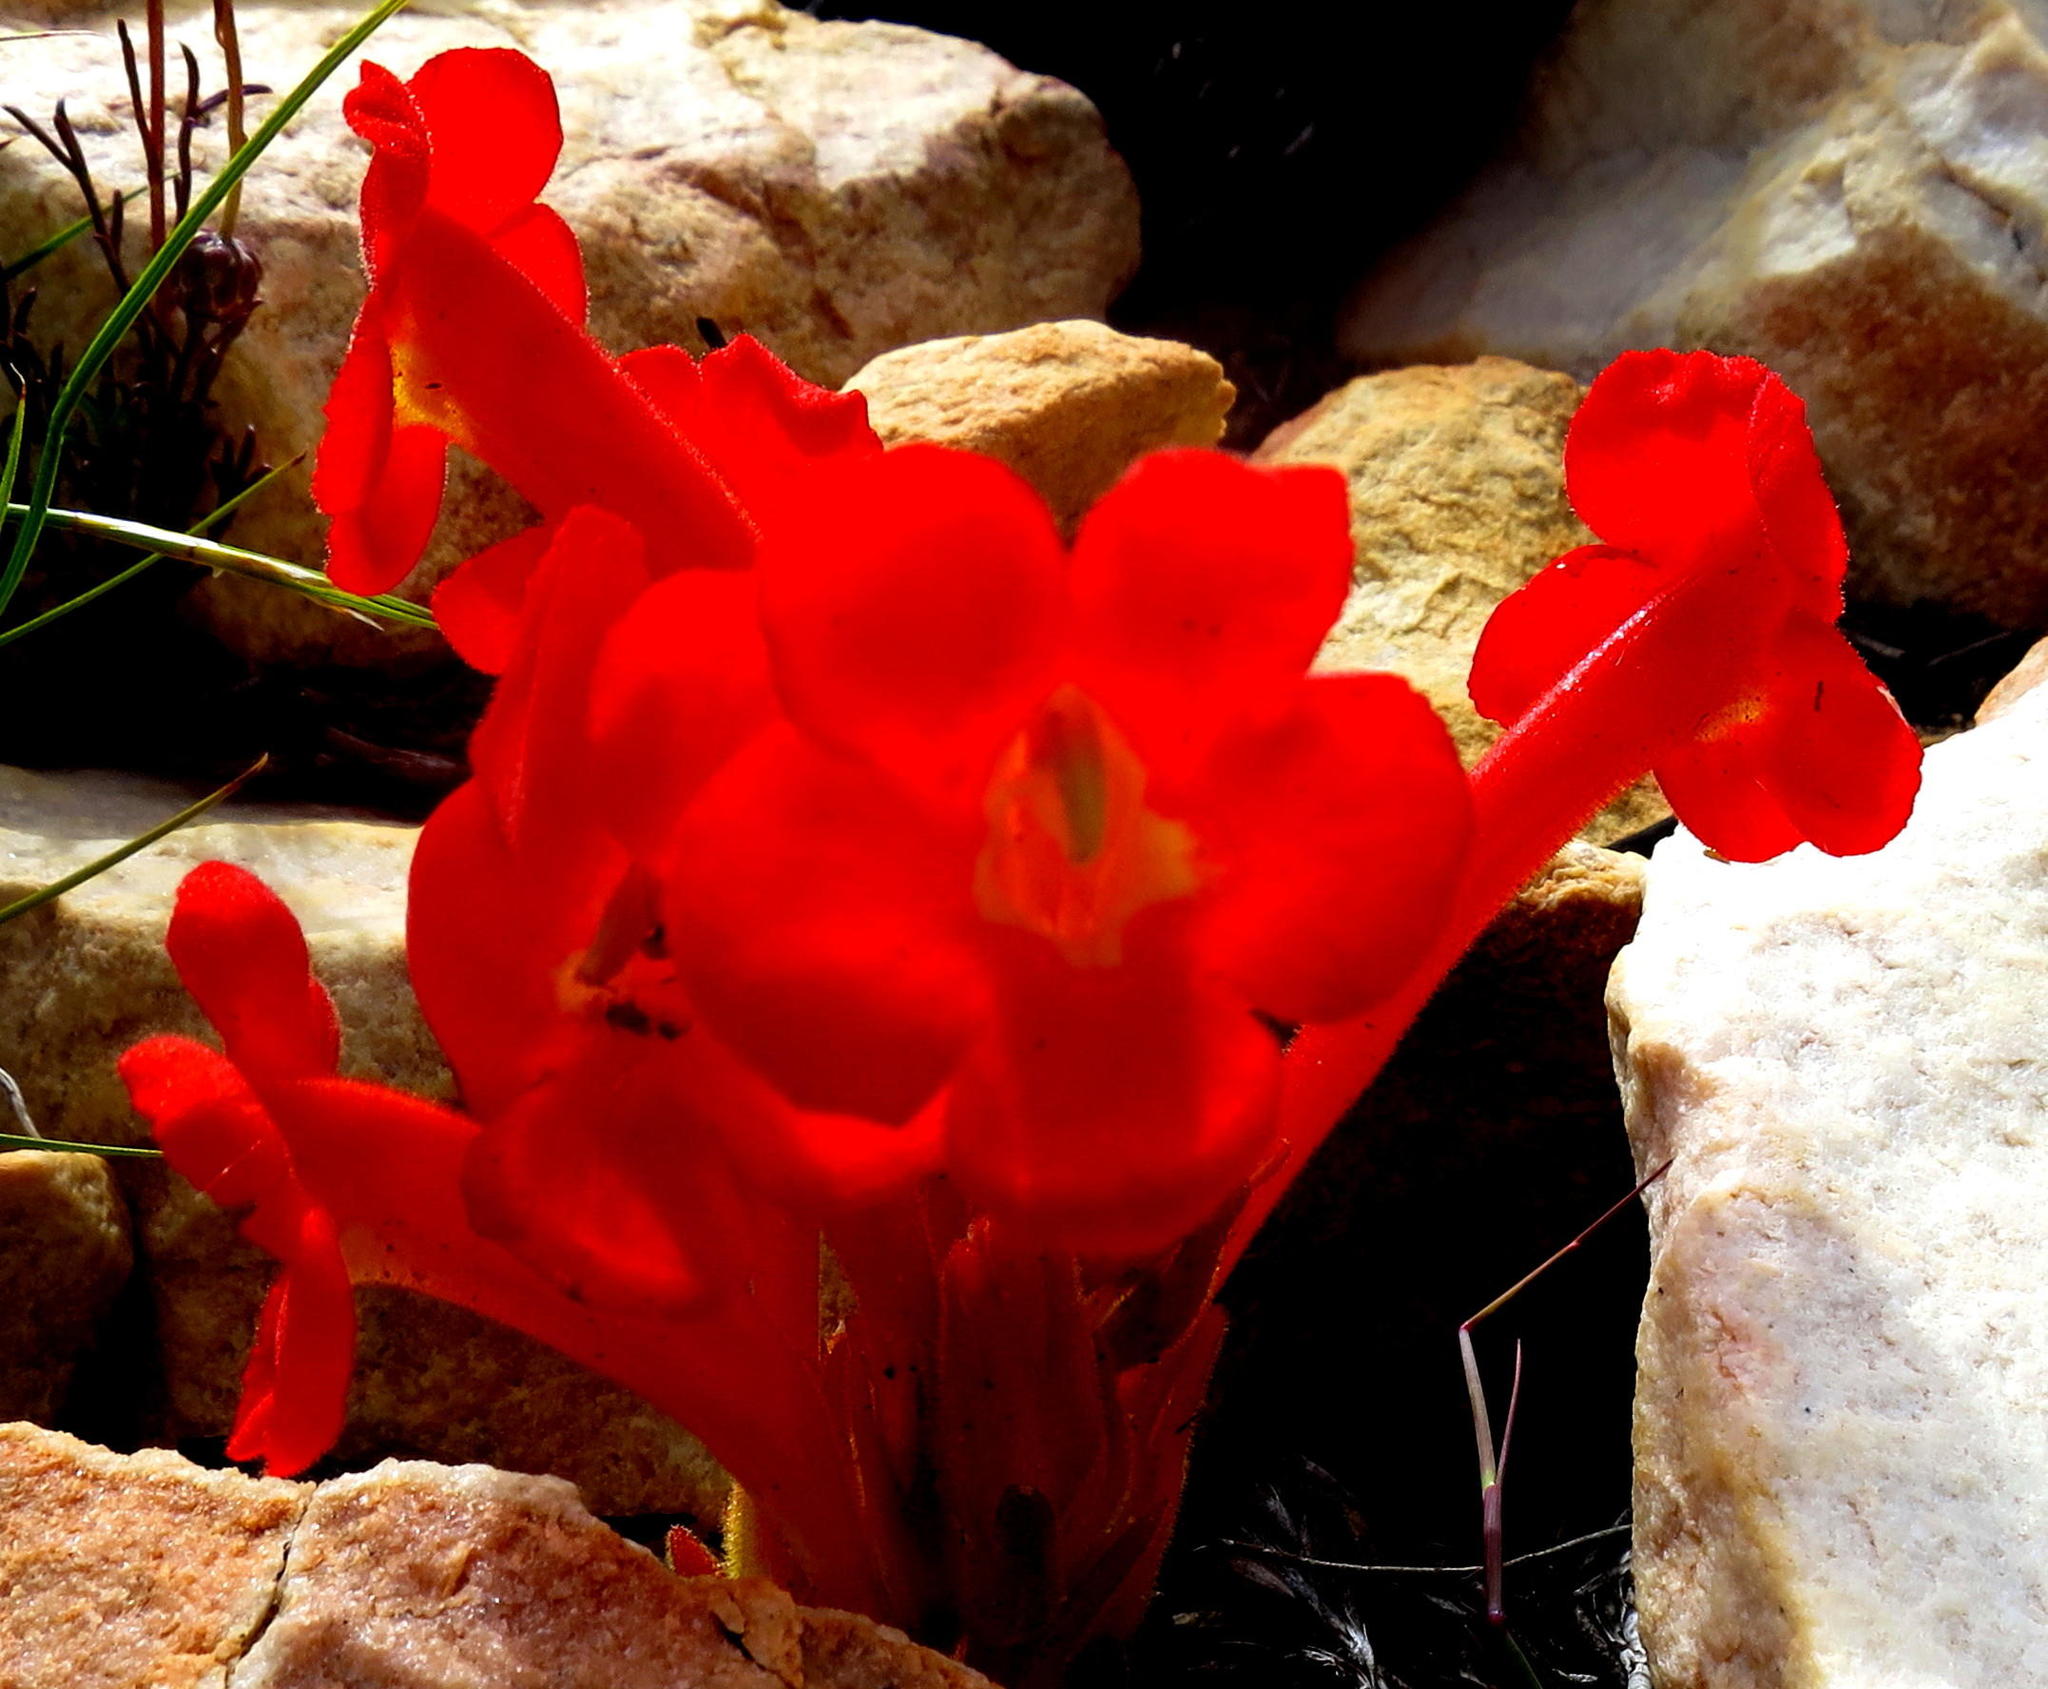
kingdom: Plantae
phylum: Tracheophyta
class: Magnoliopsida
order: Lamiales
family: Orobanchaceae
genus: Harveya
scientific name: Harveya bodkinii
